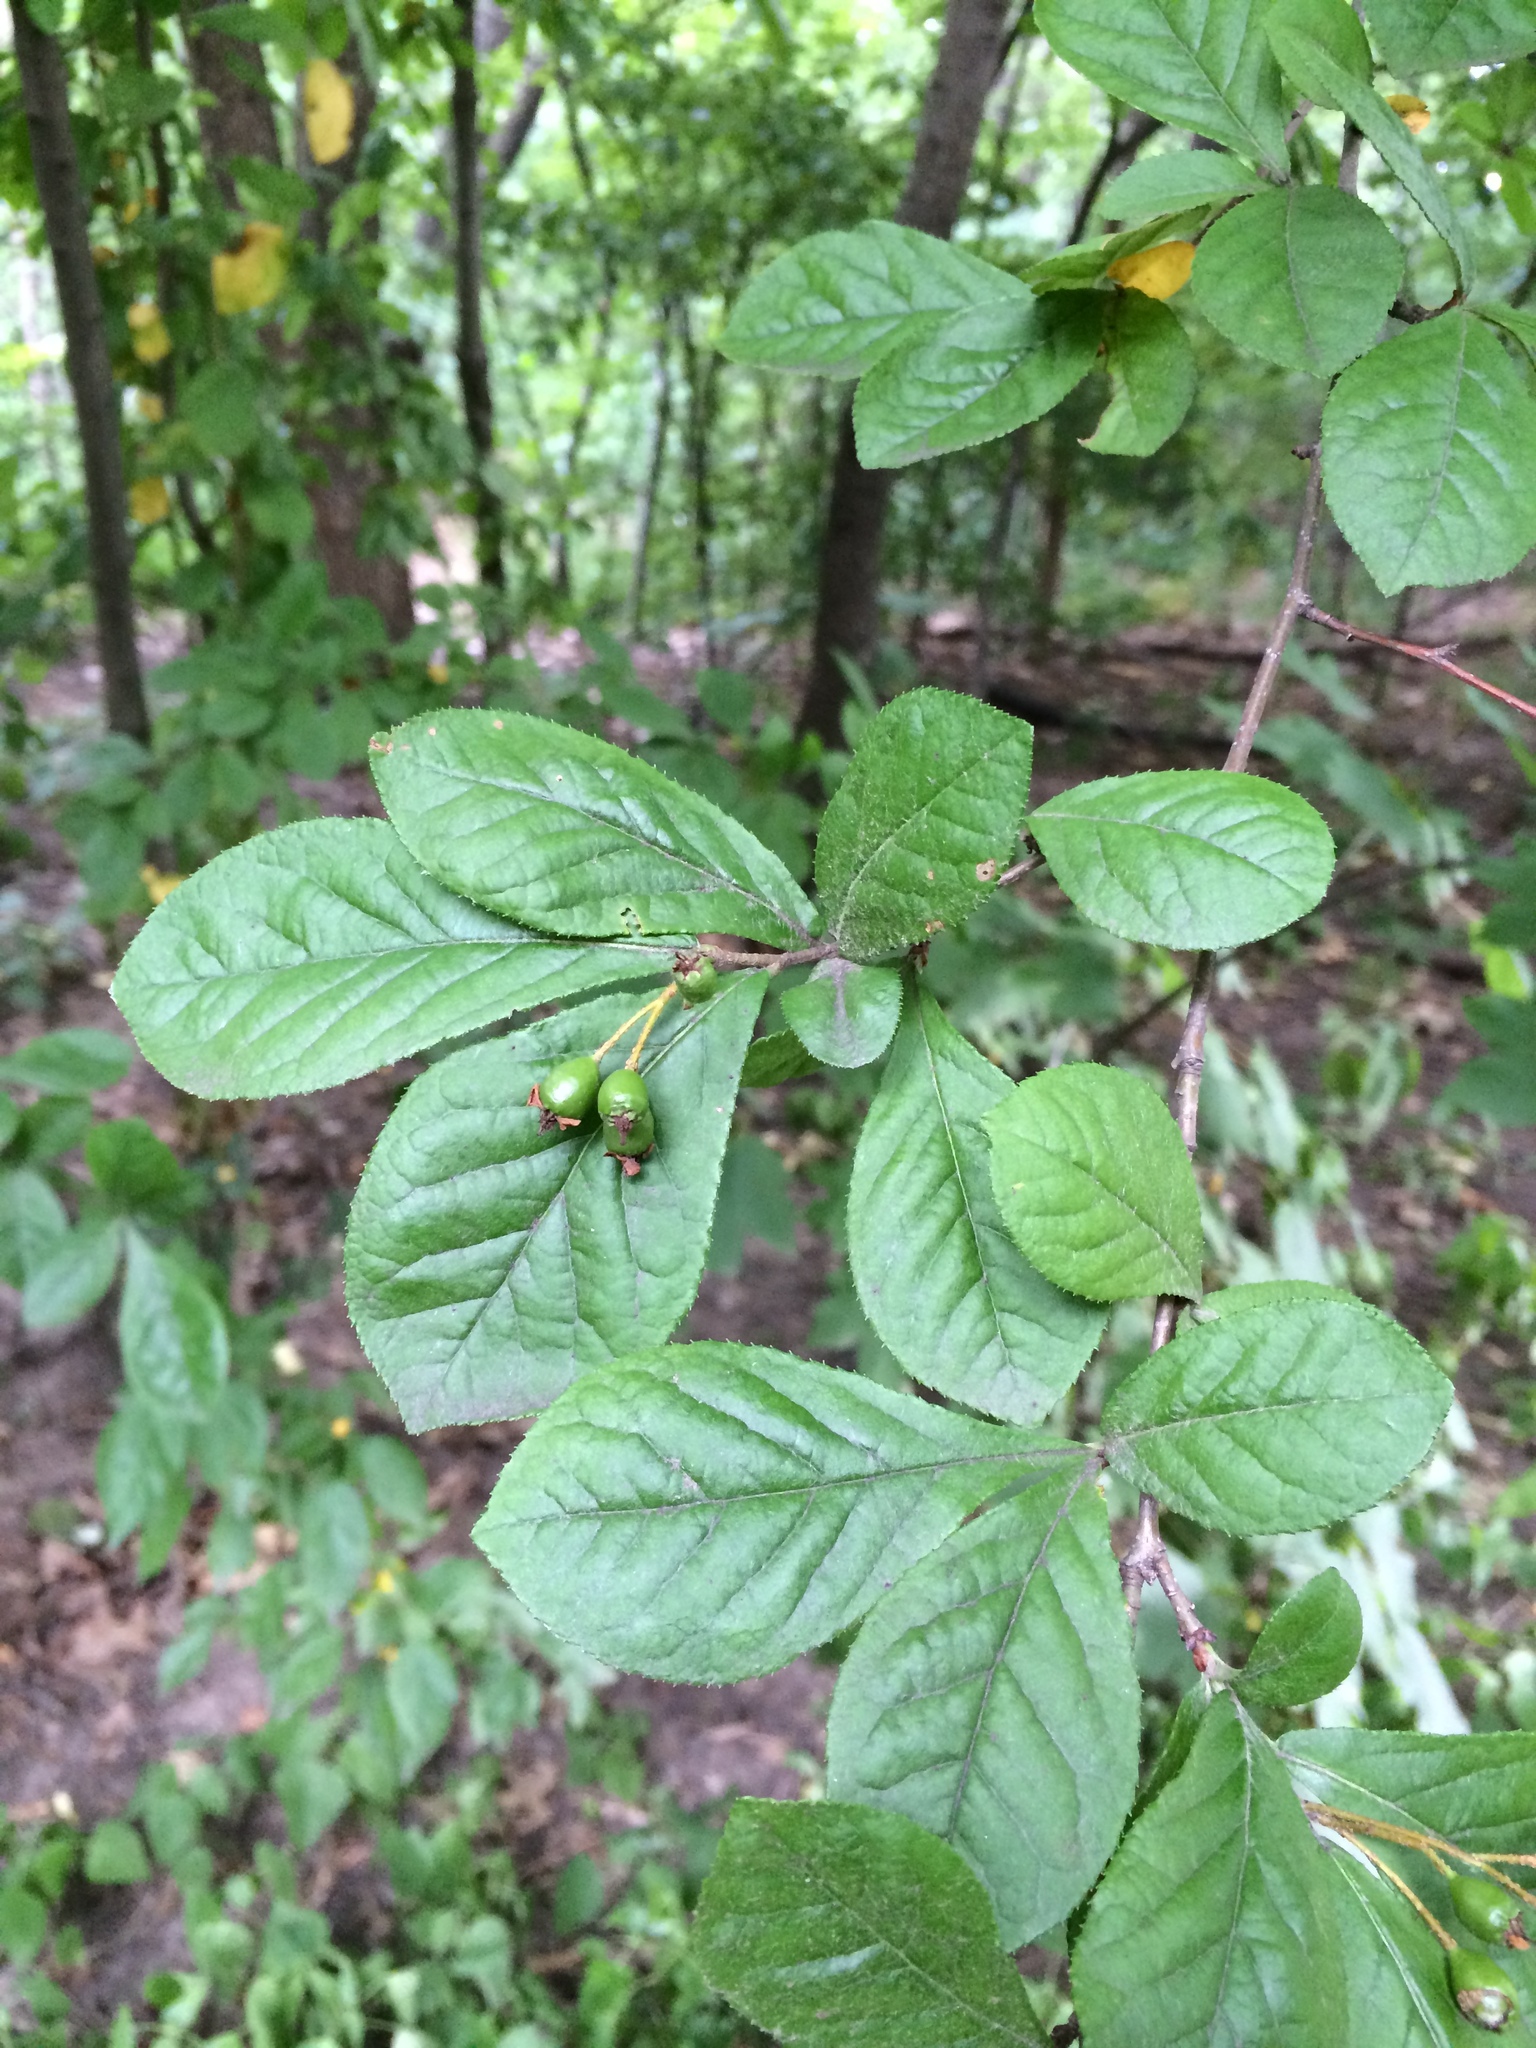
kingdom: Plantae
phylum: Tracheophyta
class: Magnoliopsida
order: Rosales
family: Rosaceae
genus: Pourthiaea
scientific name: Pourthiaea villosa
